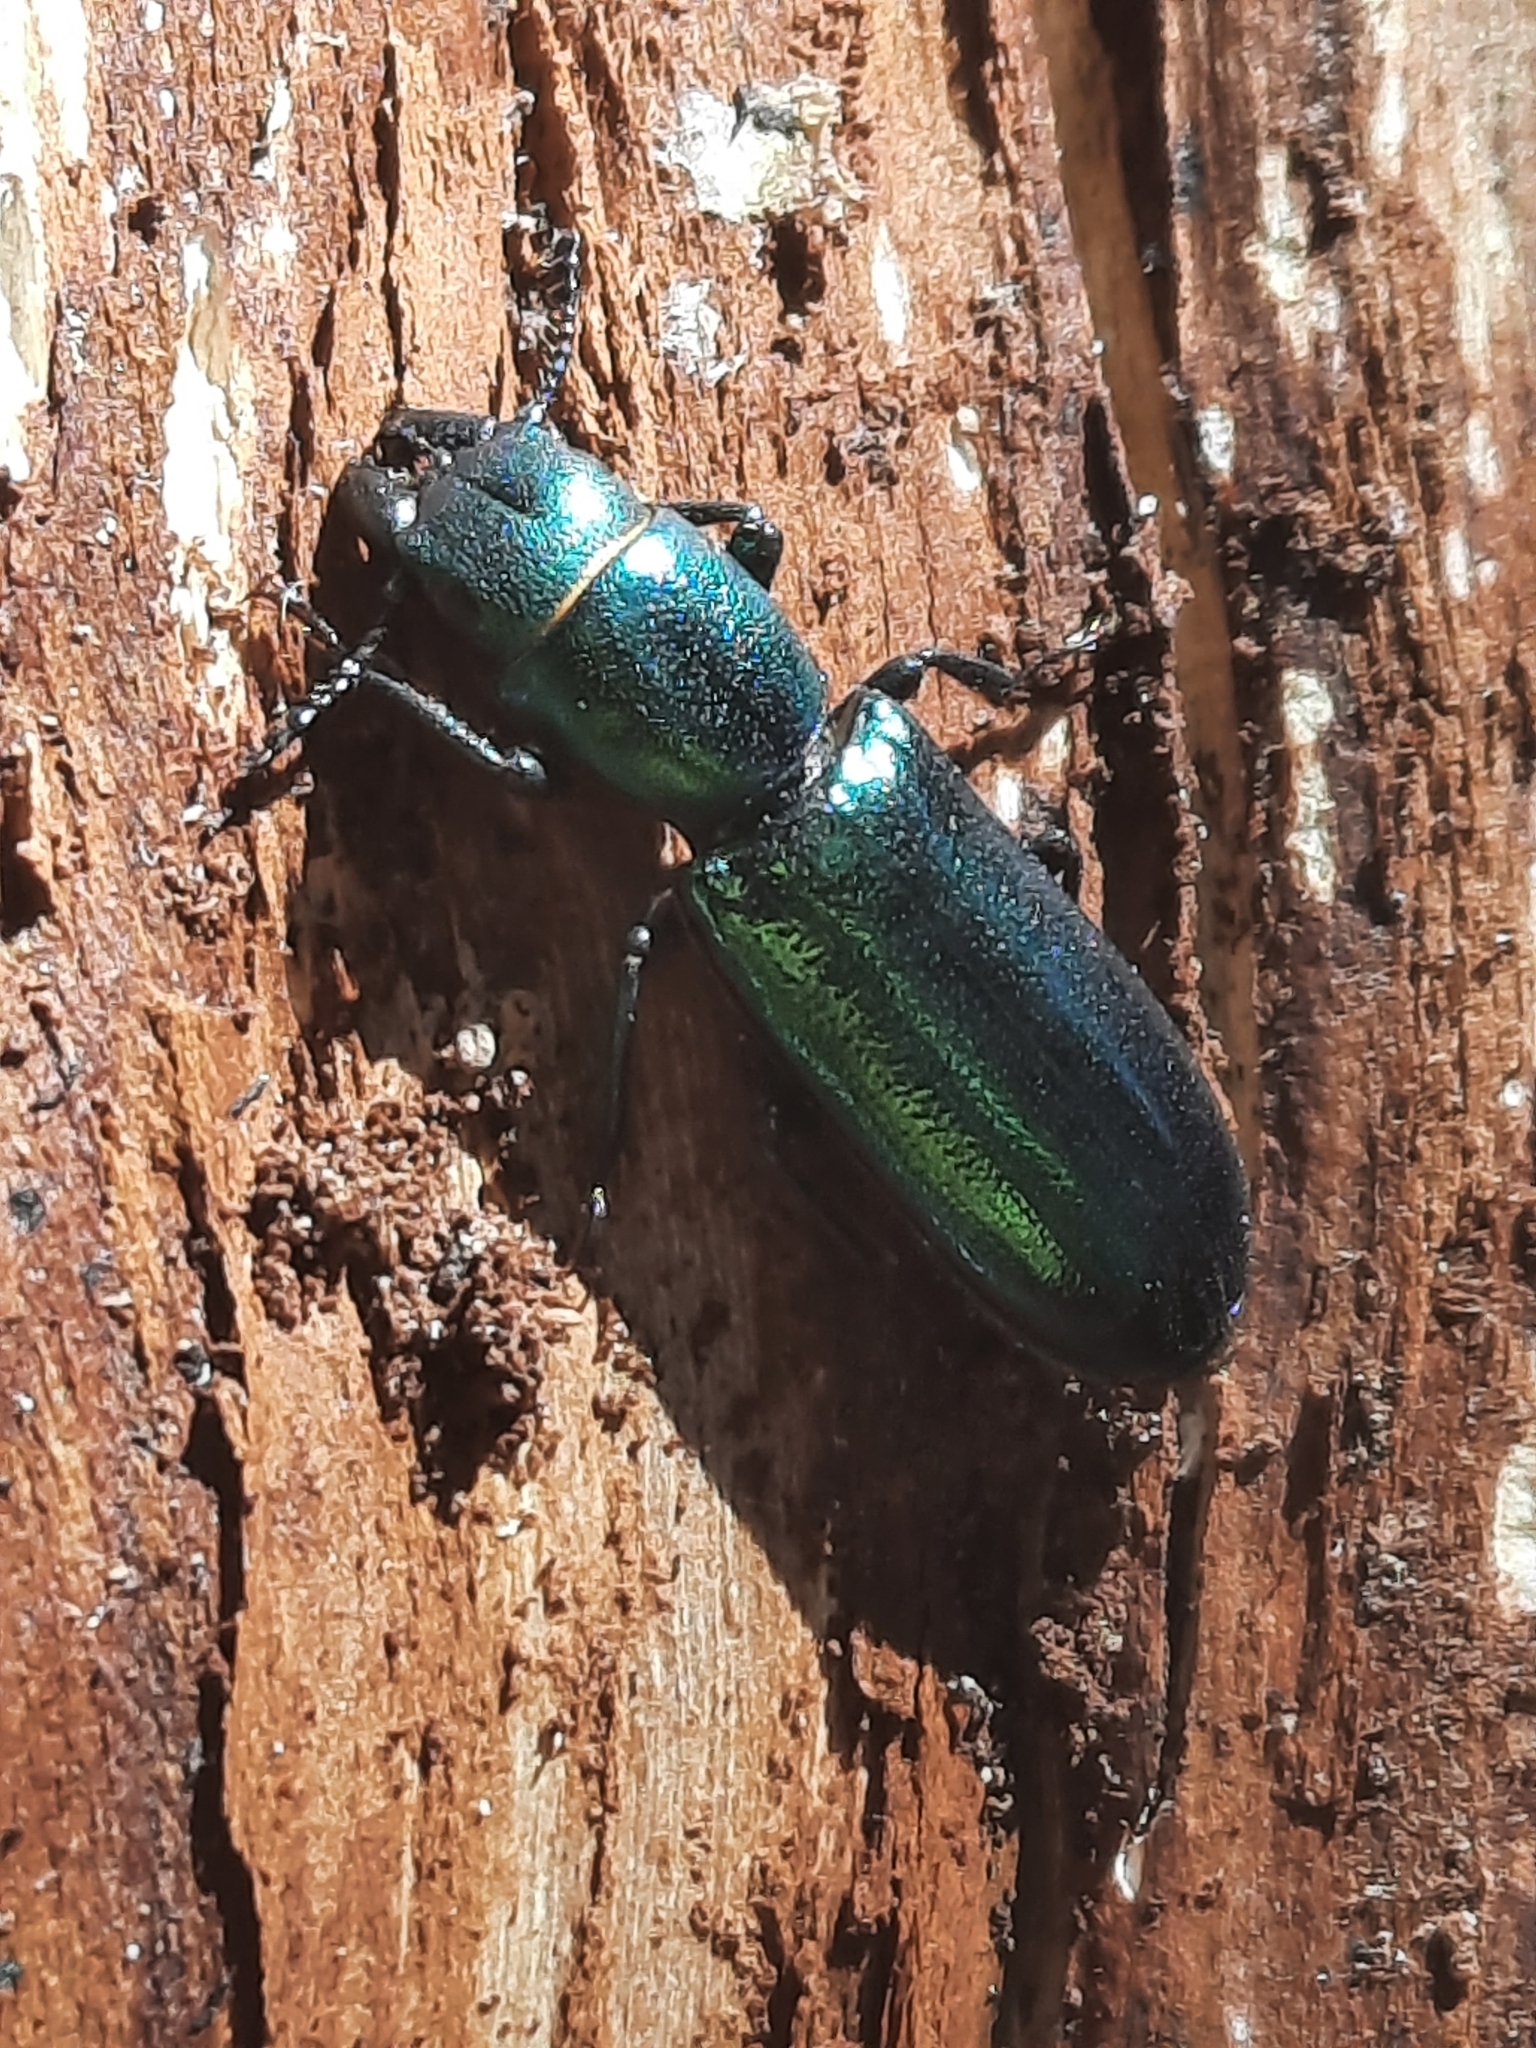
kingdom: Animalia
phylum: Arthropoda
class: Insecta
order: Coleoptera
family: Trogossitidae
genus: Temnoscheila
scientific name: Temnoscheila chlorodia
